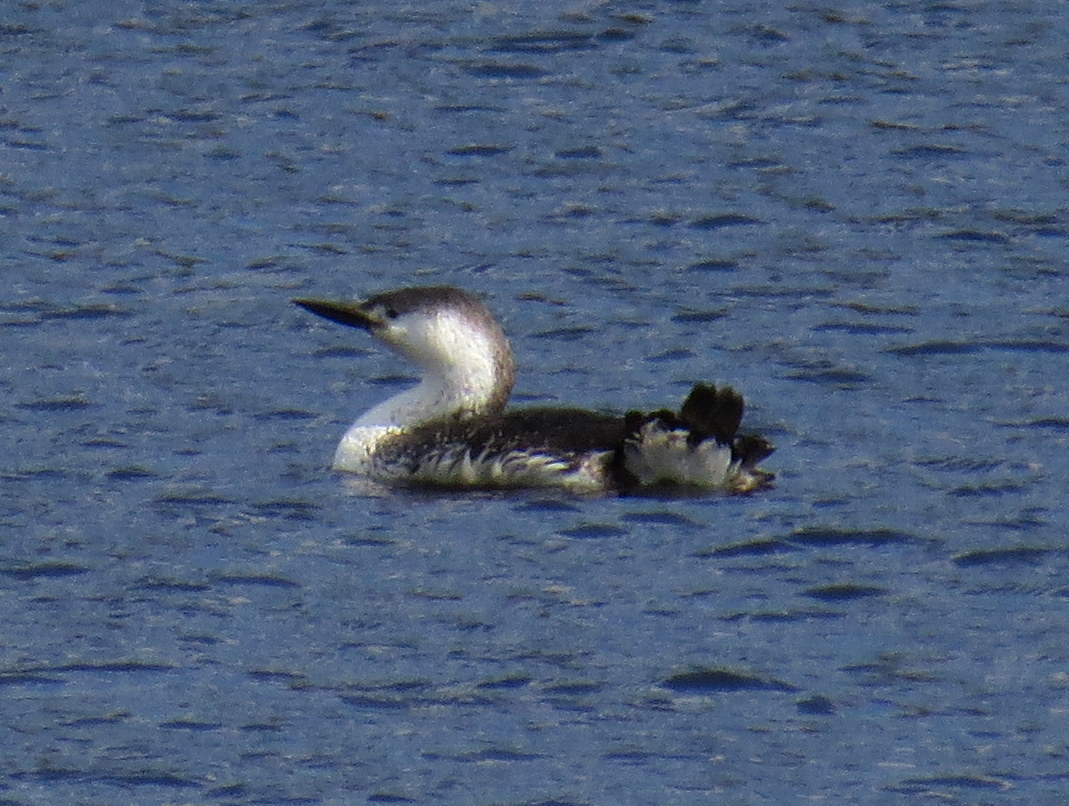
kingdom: Animalia
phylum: Chordata
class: Aves
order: Gaviiformes
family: Gaviidae
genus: Gavia
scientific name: Gavia stellata
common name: Red-throated loon
